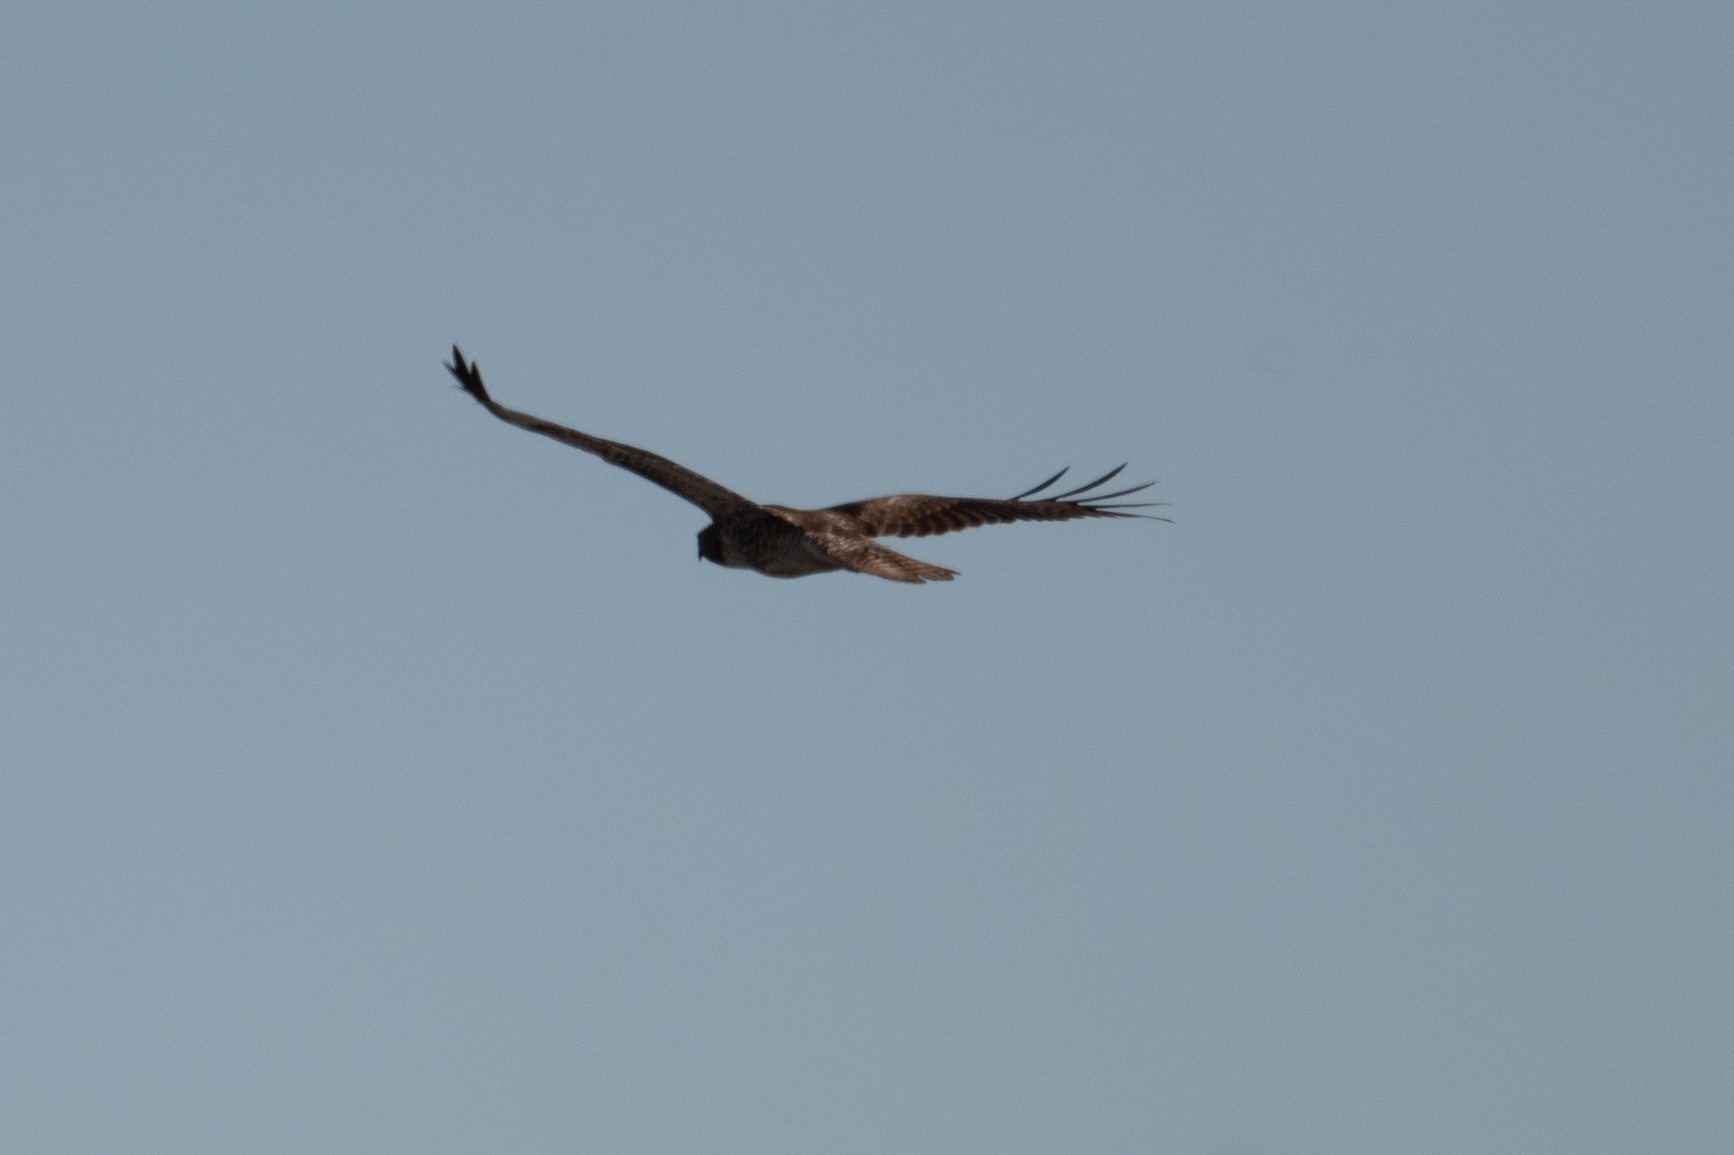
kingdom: Animalia
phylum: Chordata
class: Aves
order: Accipitriformes
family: Accipitridae
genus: Buteo
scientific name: Buteo jamaicensis
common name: Red-tailed hawk
